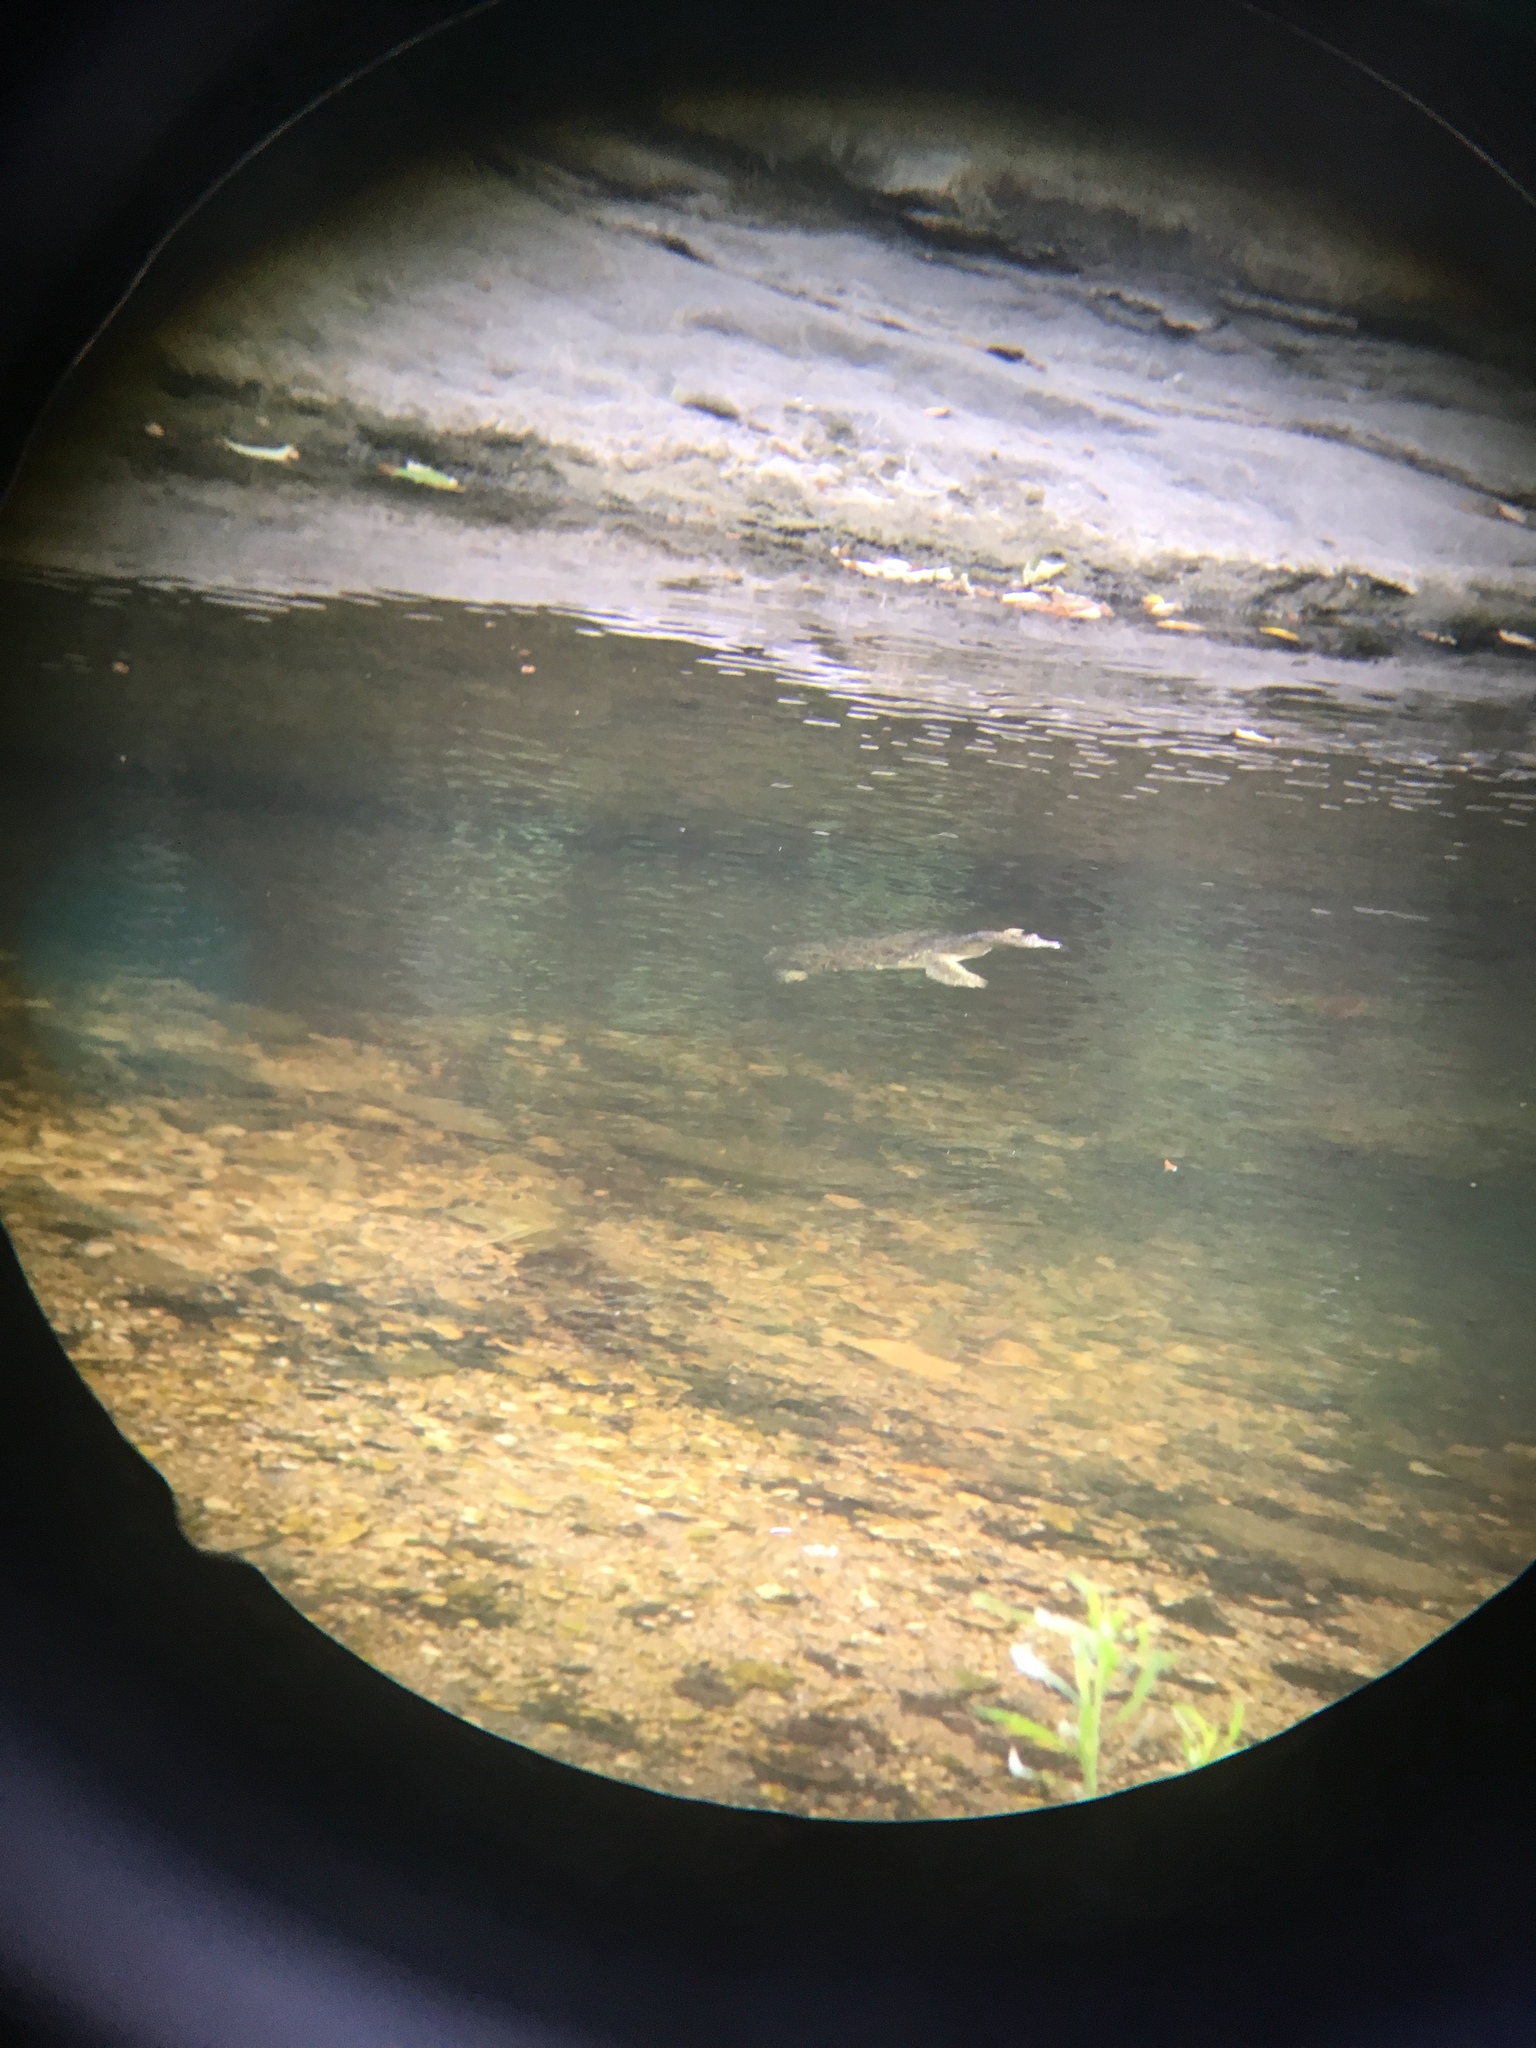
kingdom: Animalia
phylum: Chordata
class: Testudines
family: Trionychidae
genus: Apalone
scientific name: Apalone spinifera
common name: Spiny softshell turtle
